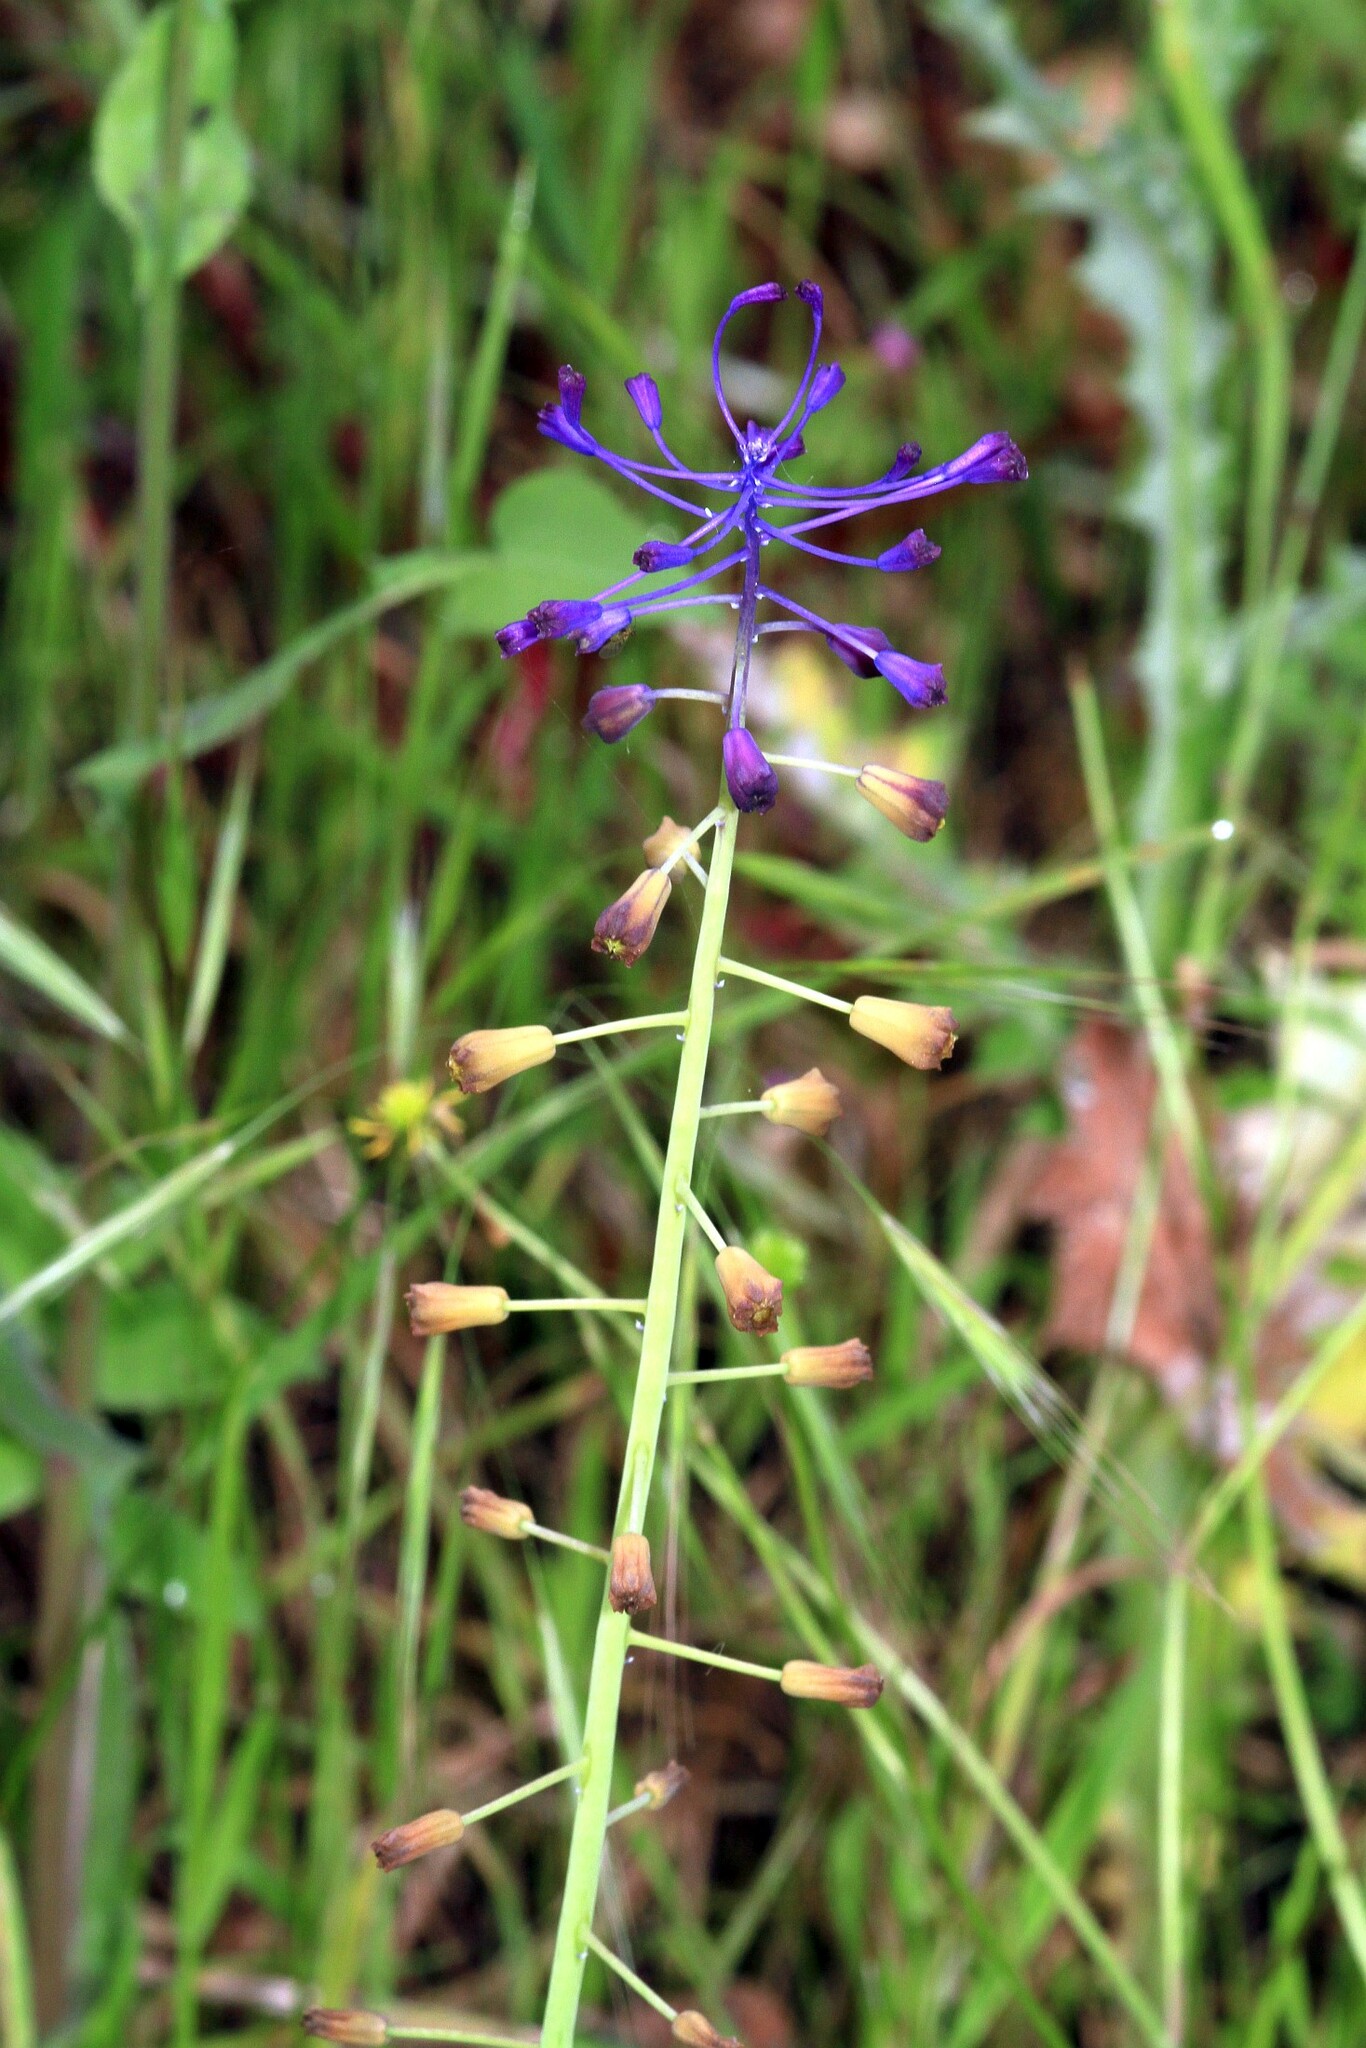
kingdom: Plantae
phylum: Tracheophyta
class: Liliopsida
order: Asparagales
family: Asparagaceae
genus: Muscari
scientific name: Muscari comosum
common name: Tassel hyacinth
